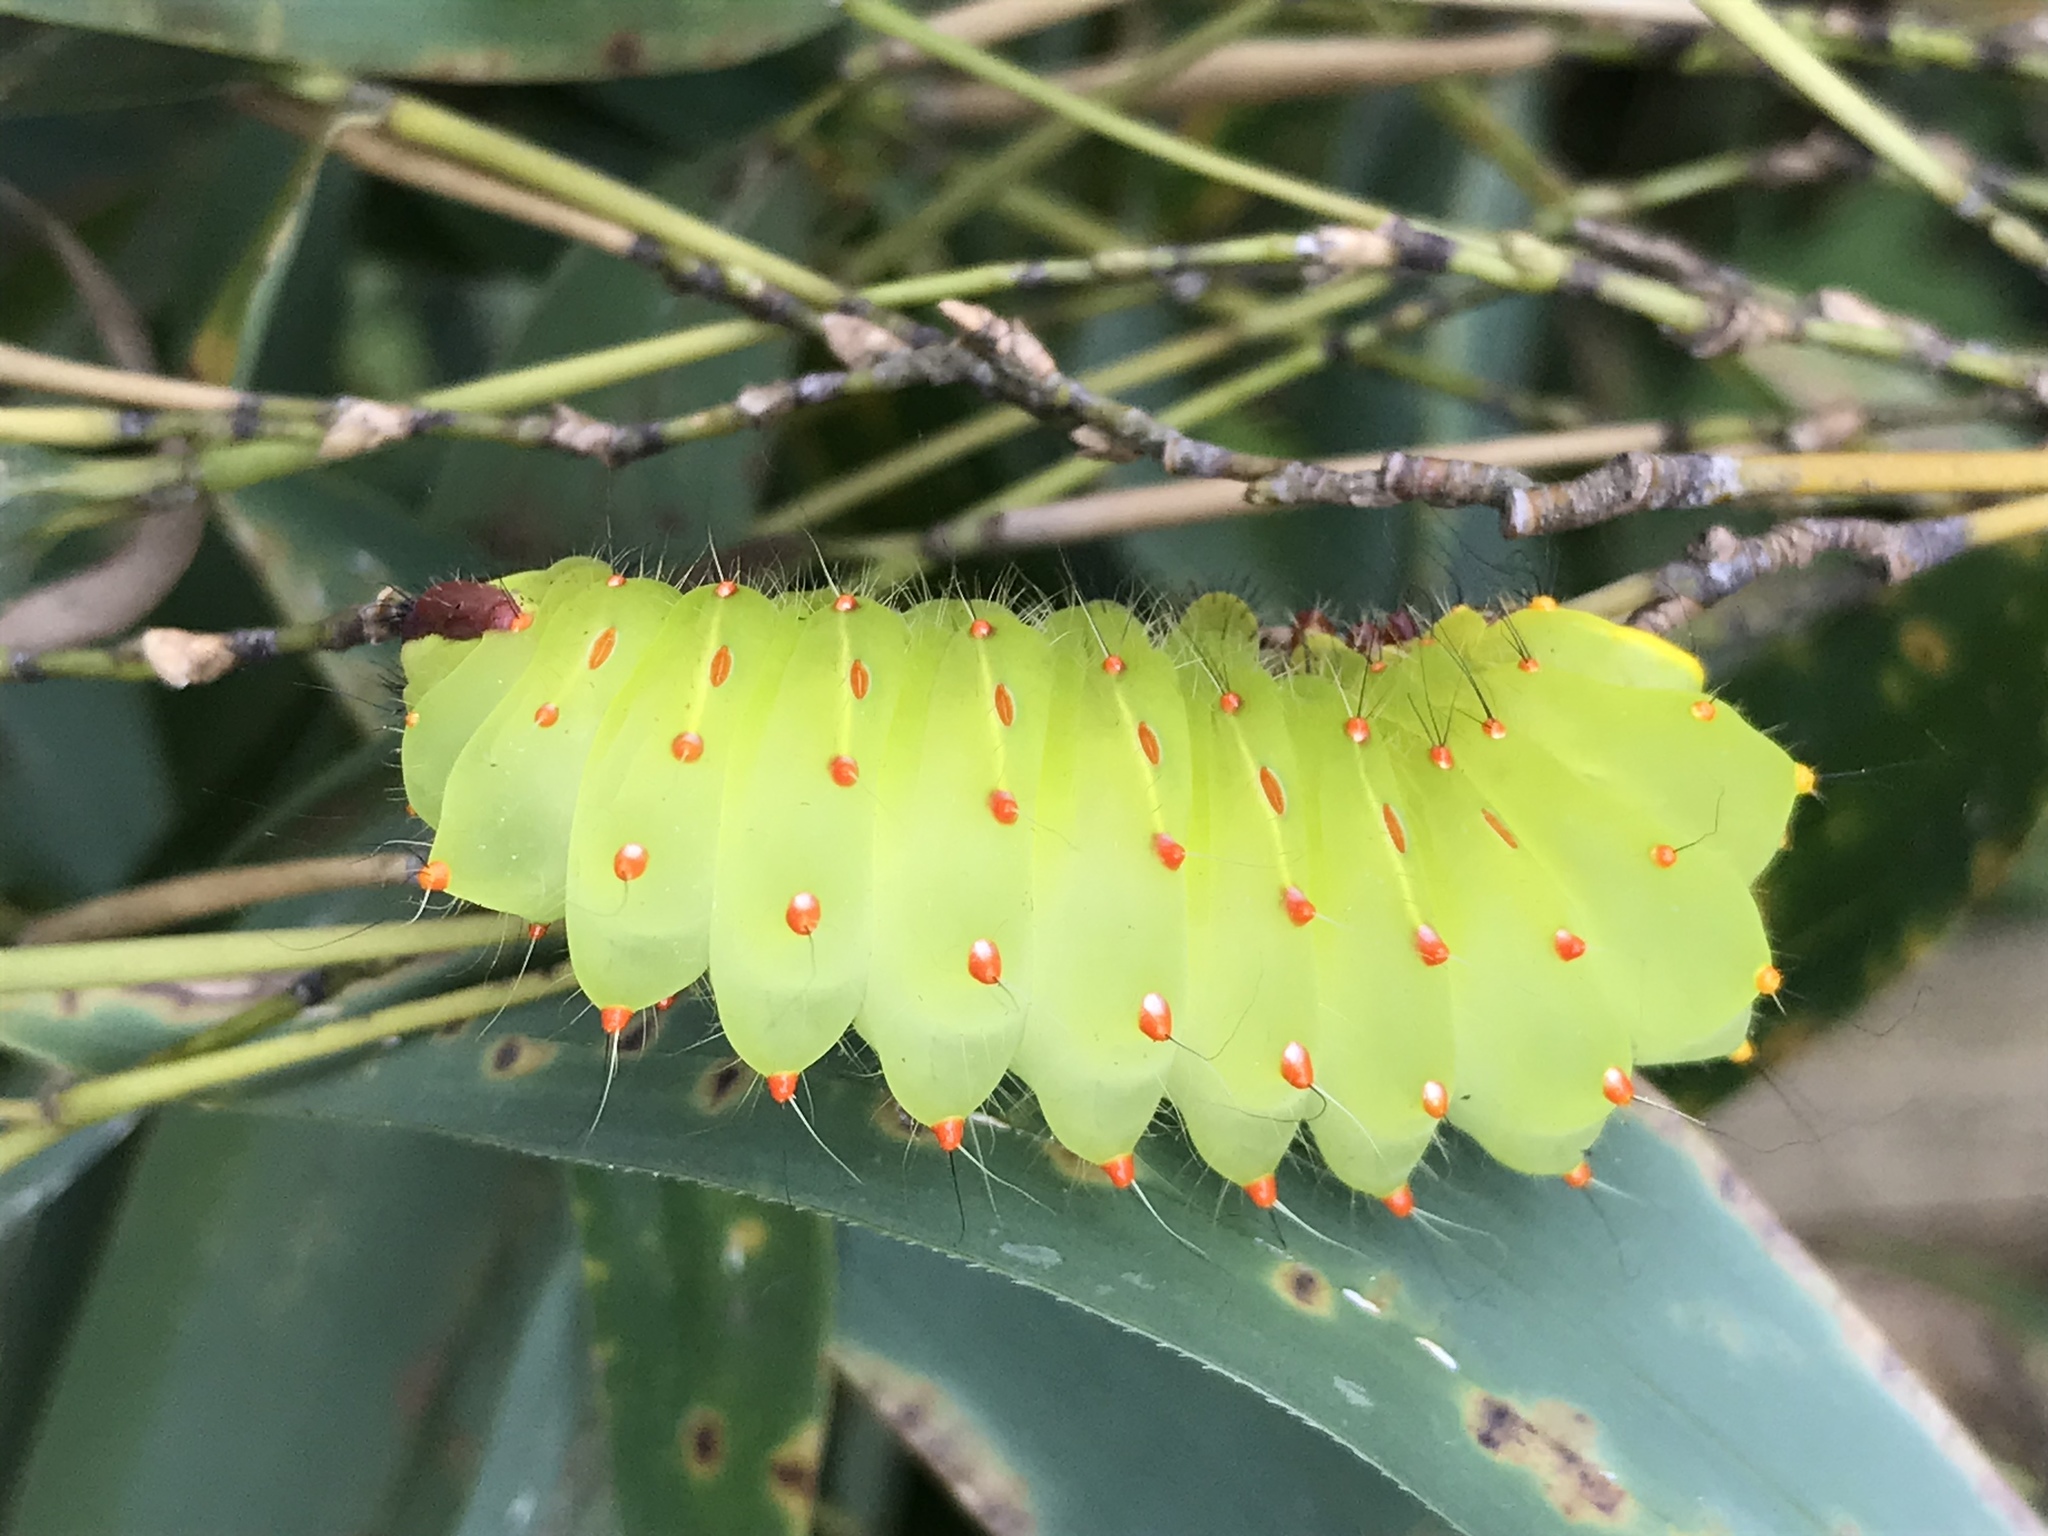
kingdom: Animalia
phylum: Arthropoda
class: Insecta
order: Lepidoptera
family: Saturniidae
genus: Antheraea
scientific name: Antheraea polyphemus
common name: Polyphemus moth
